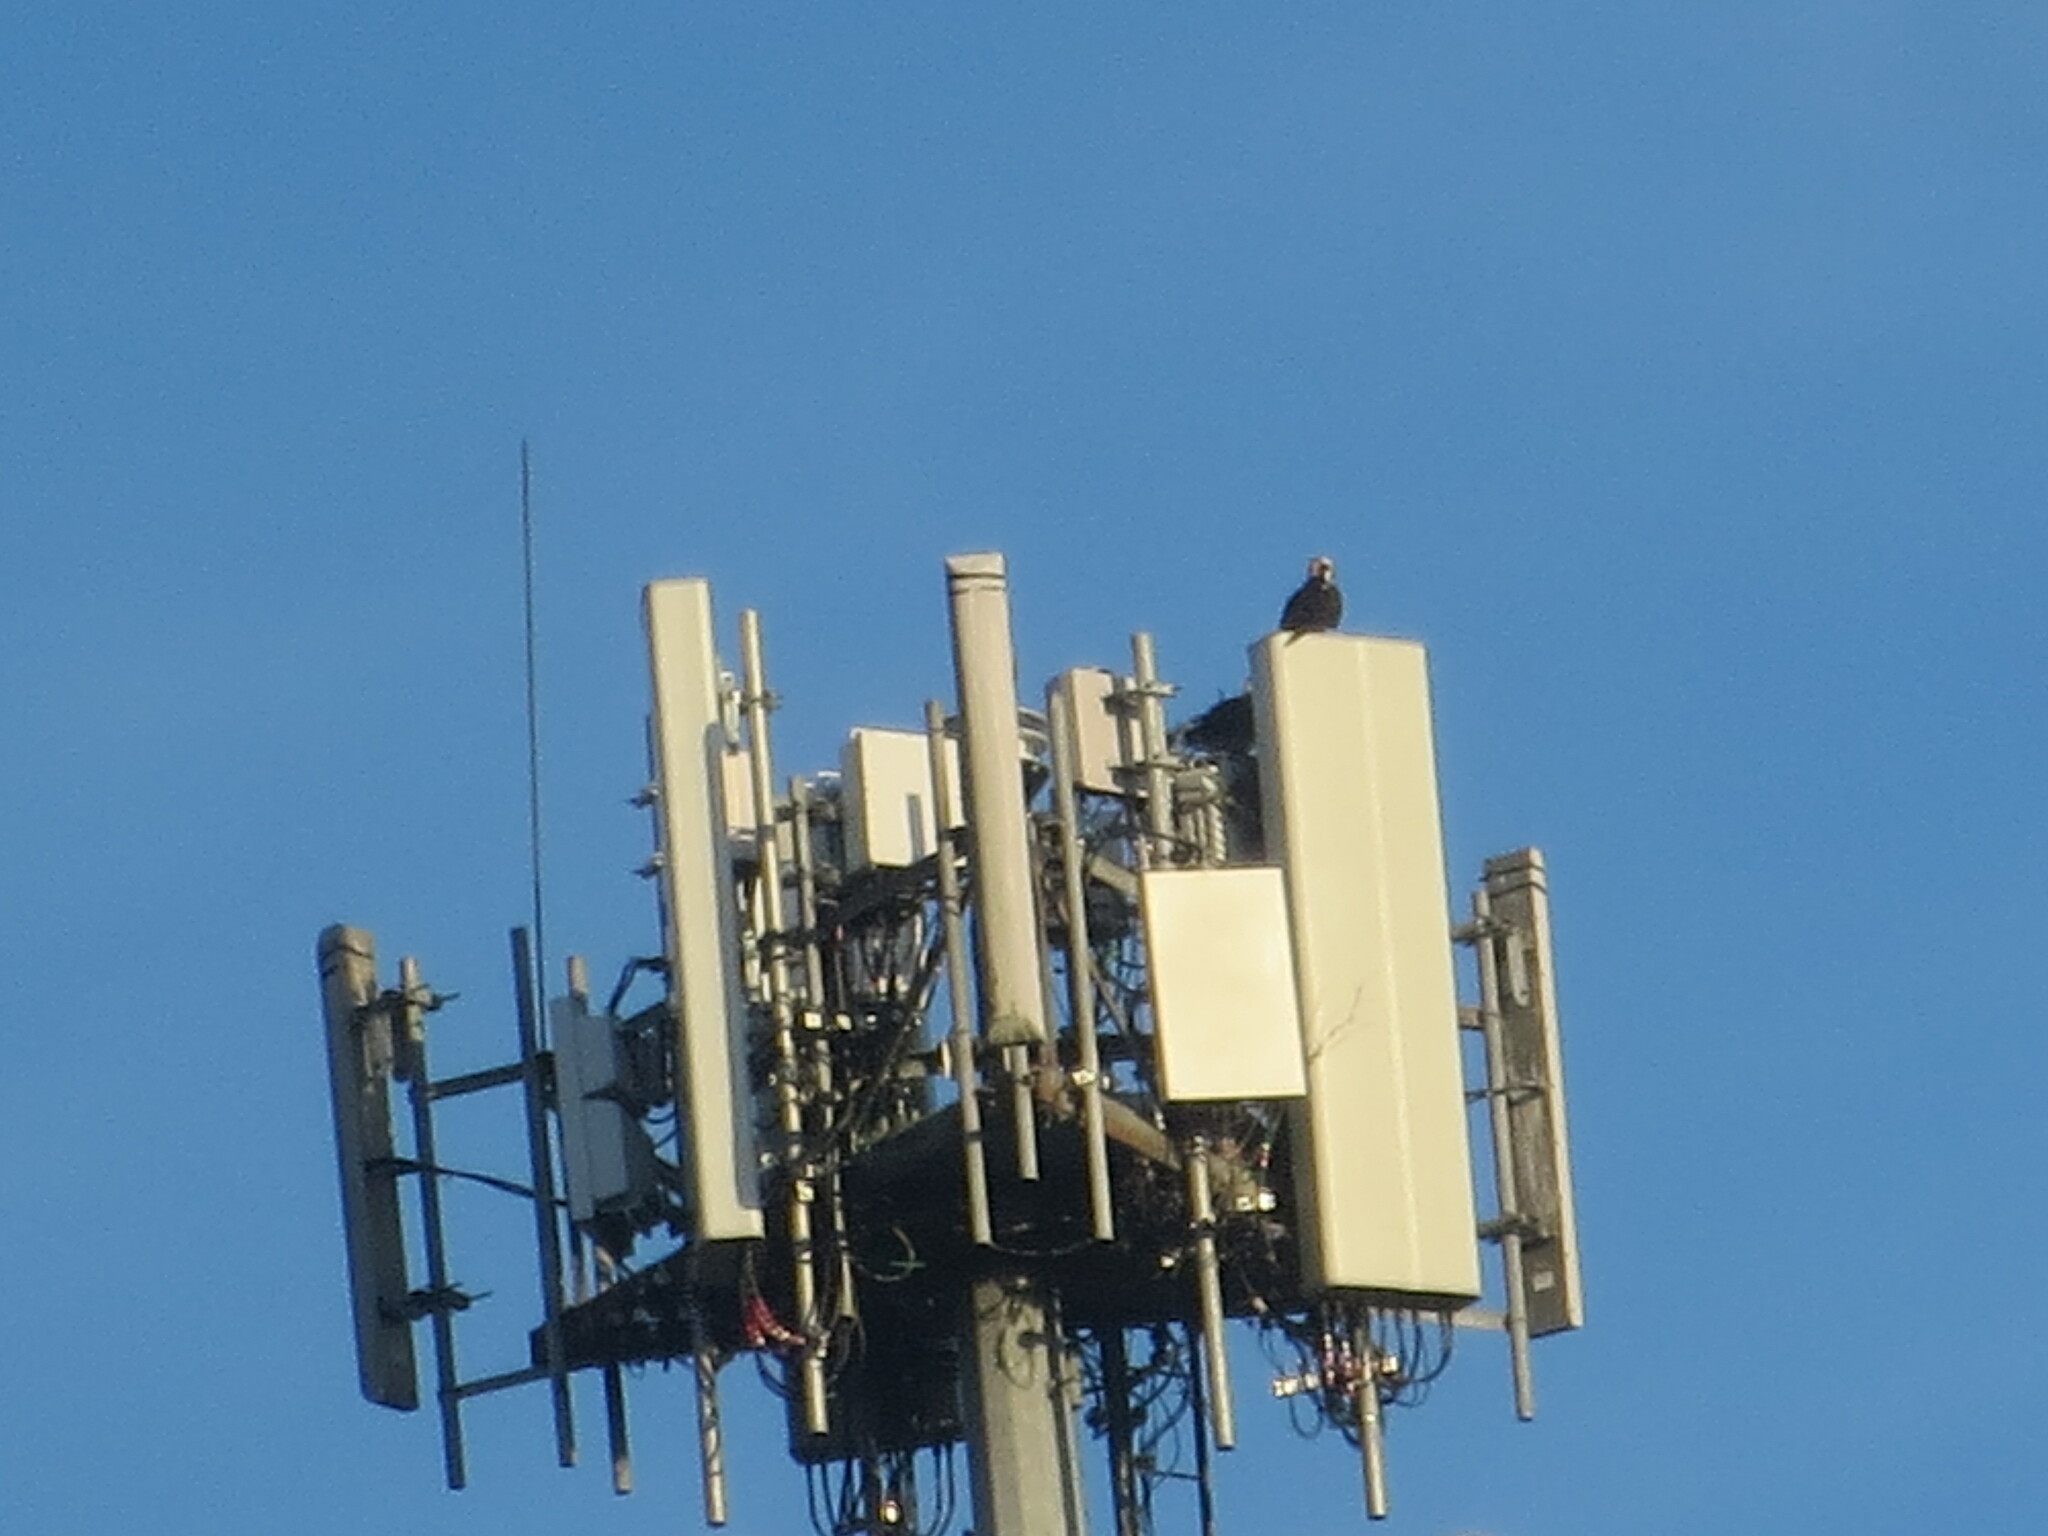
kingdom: Animalia
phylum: Chordata
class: Aves
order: Accipitriformes
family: Pandionidae
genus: Pandion
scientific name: Pandion haliaetus
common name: Osprey
